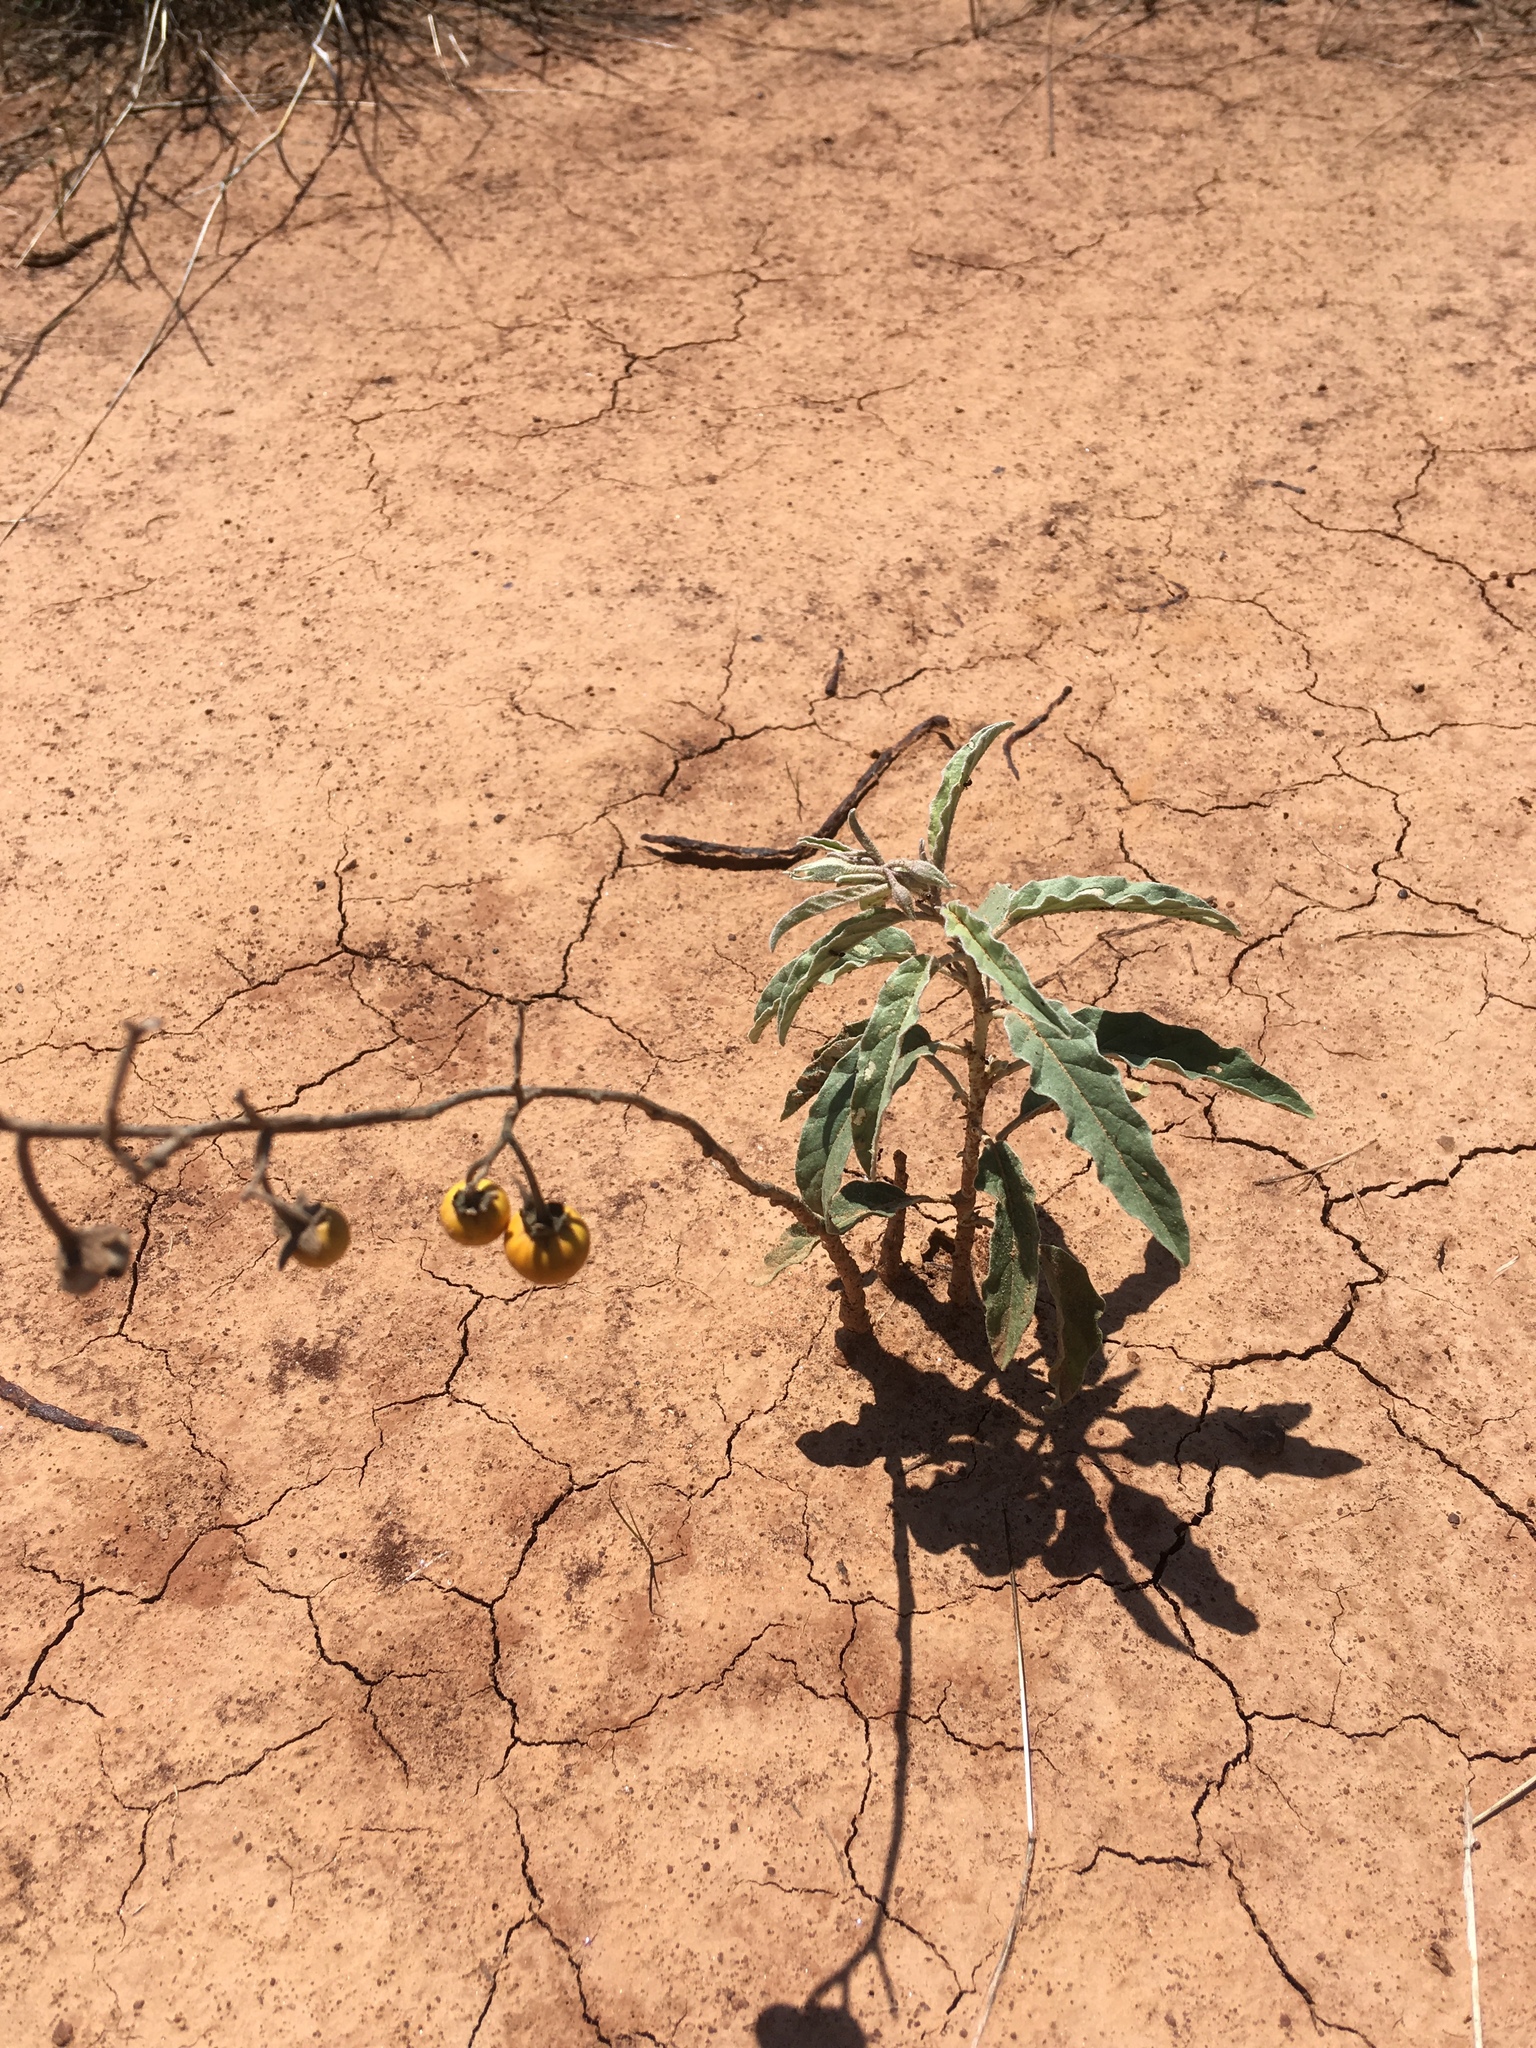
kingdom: Plantae
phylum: Tracheophyta
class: Magnoliopsida
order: Solanales
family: Solanaceae
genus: Solanum
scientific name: Solanum elaeagnifolium
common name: Silverleaf nightshade
